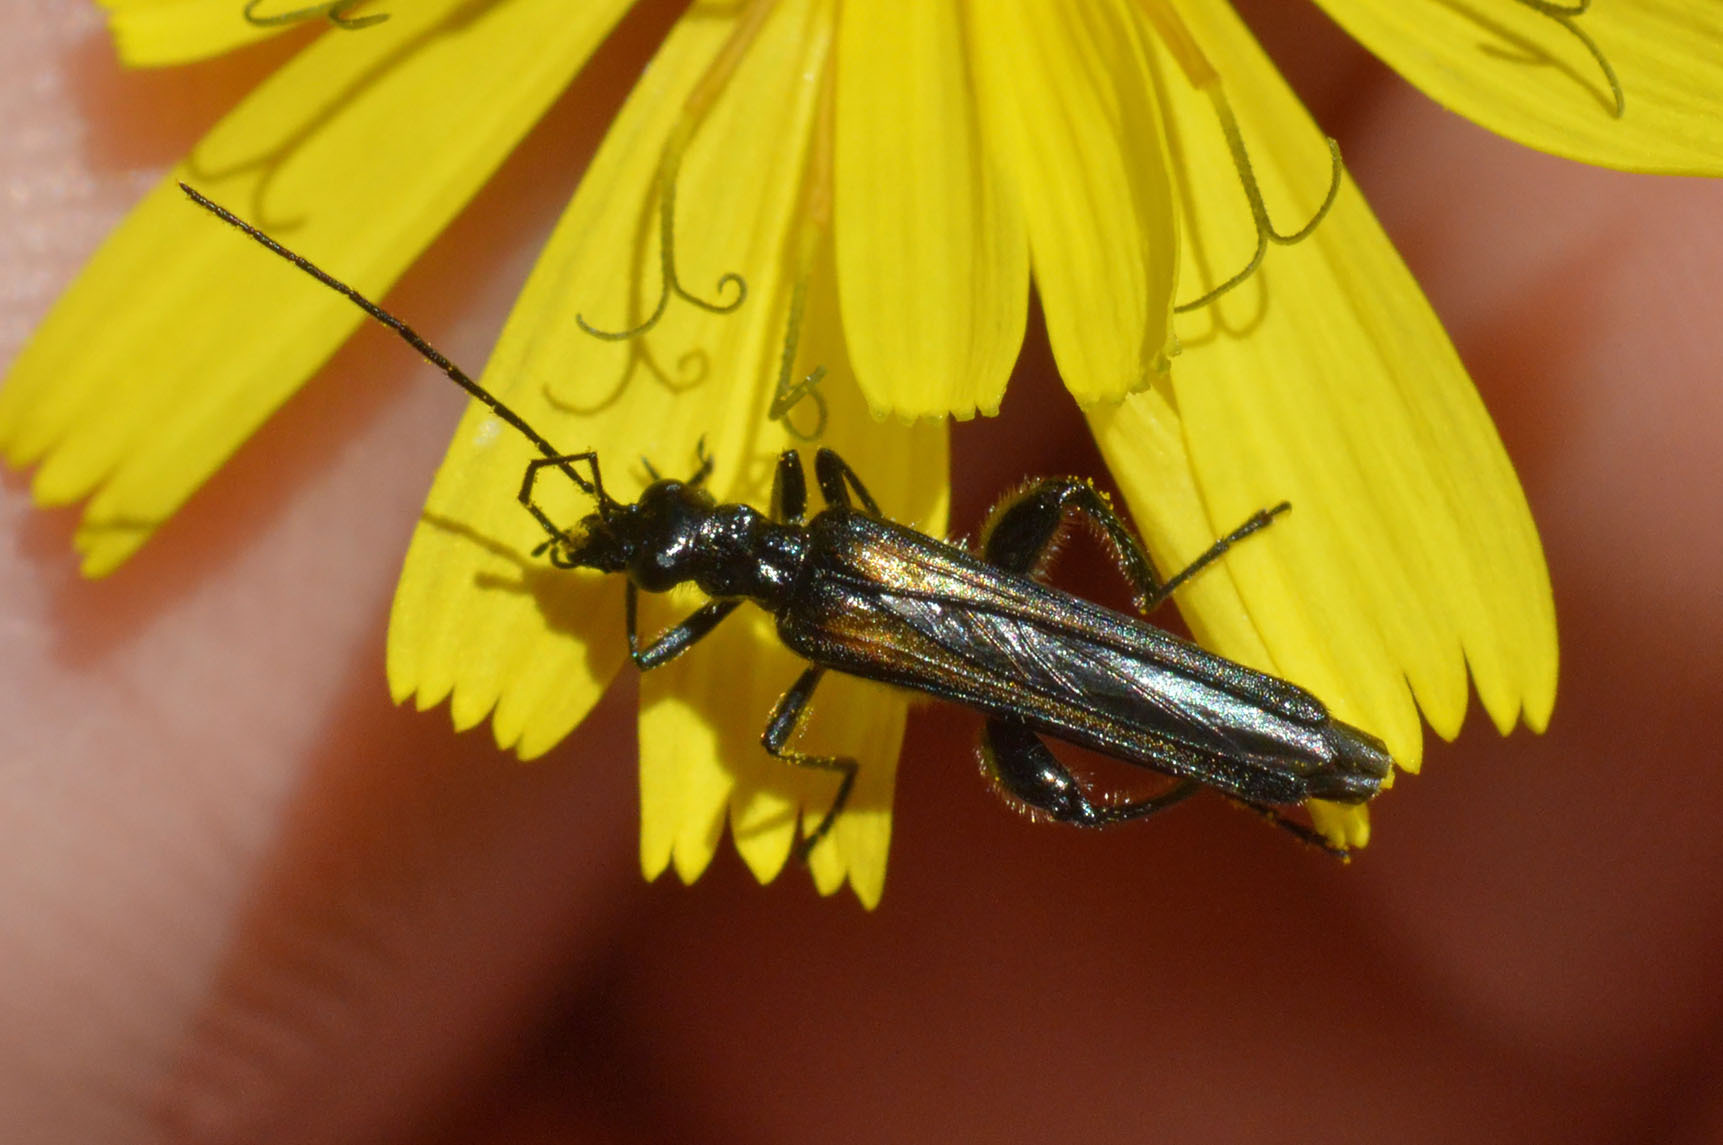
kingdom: Animalia
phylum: Arthropoda
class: Insecta
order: Coleoptera
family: Oedemeridae
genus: Oedemera
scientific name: Oedemera pthysica
